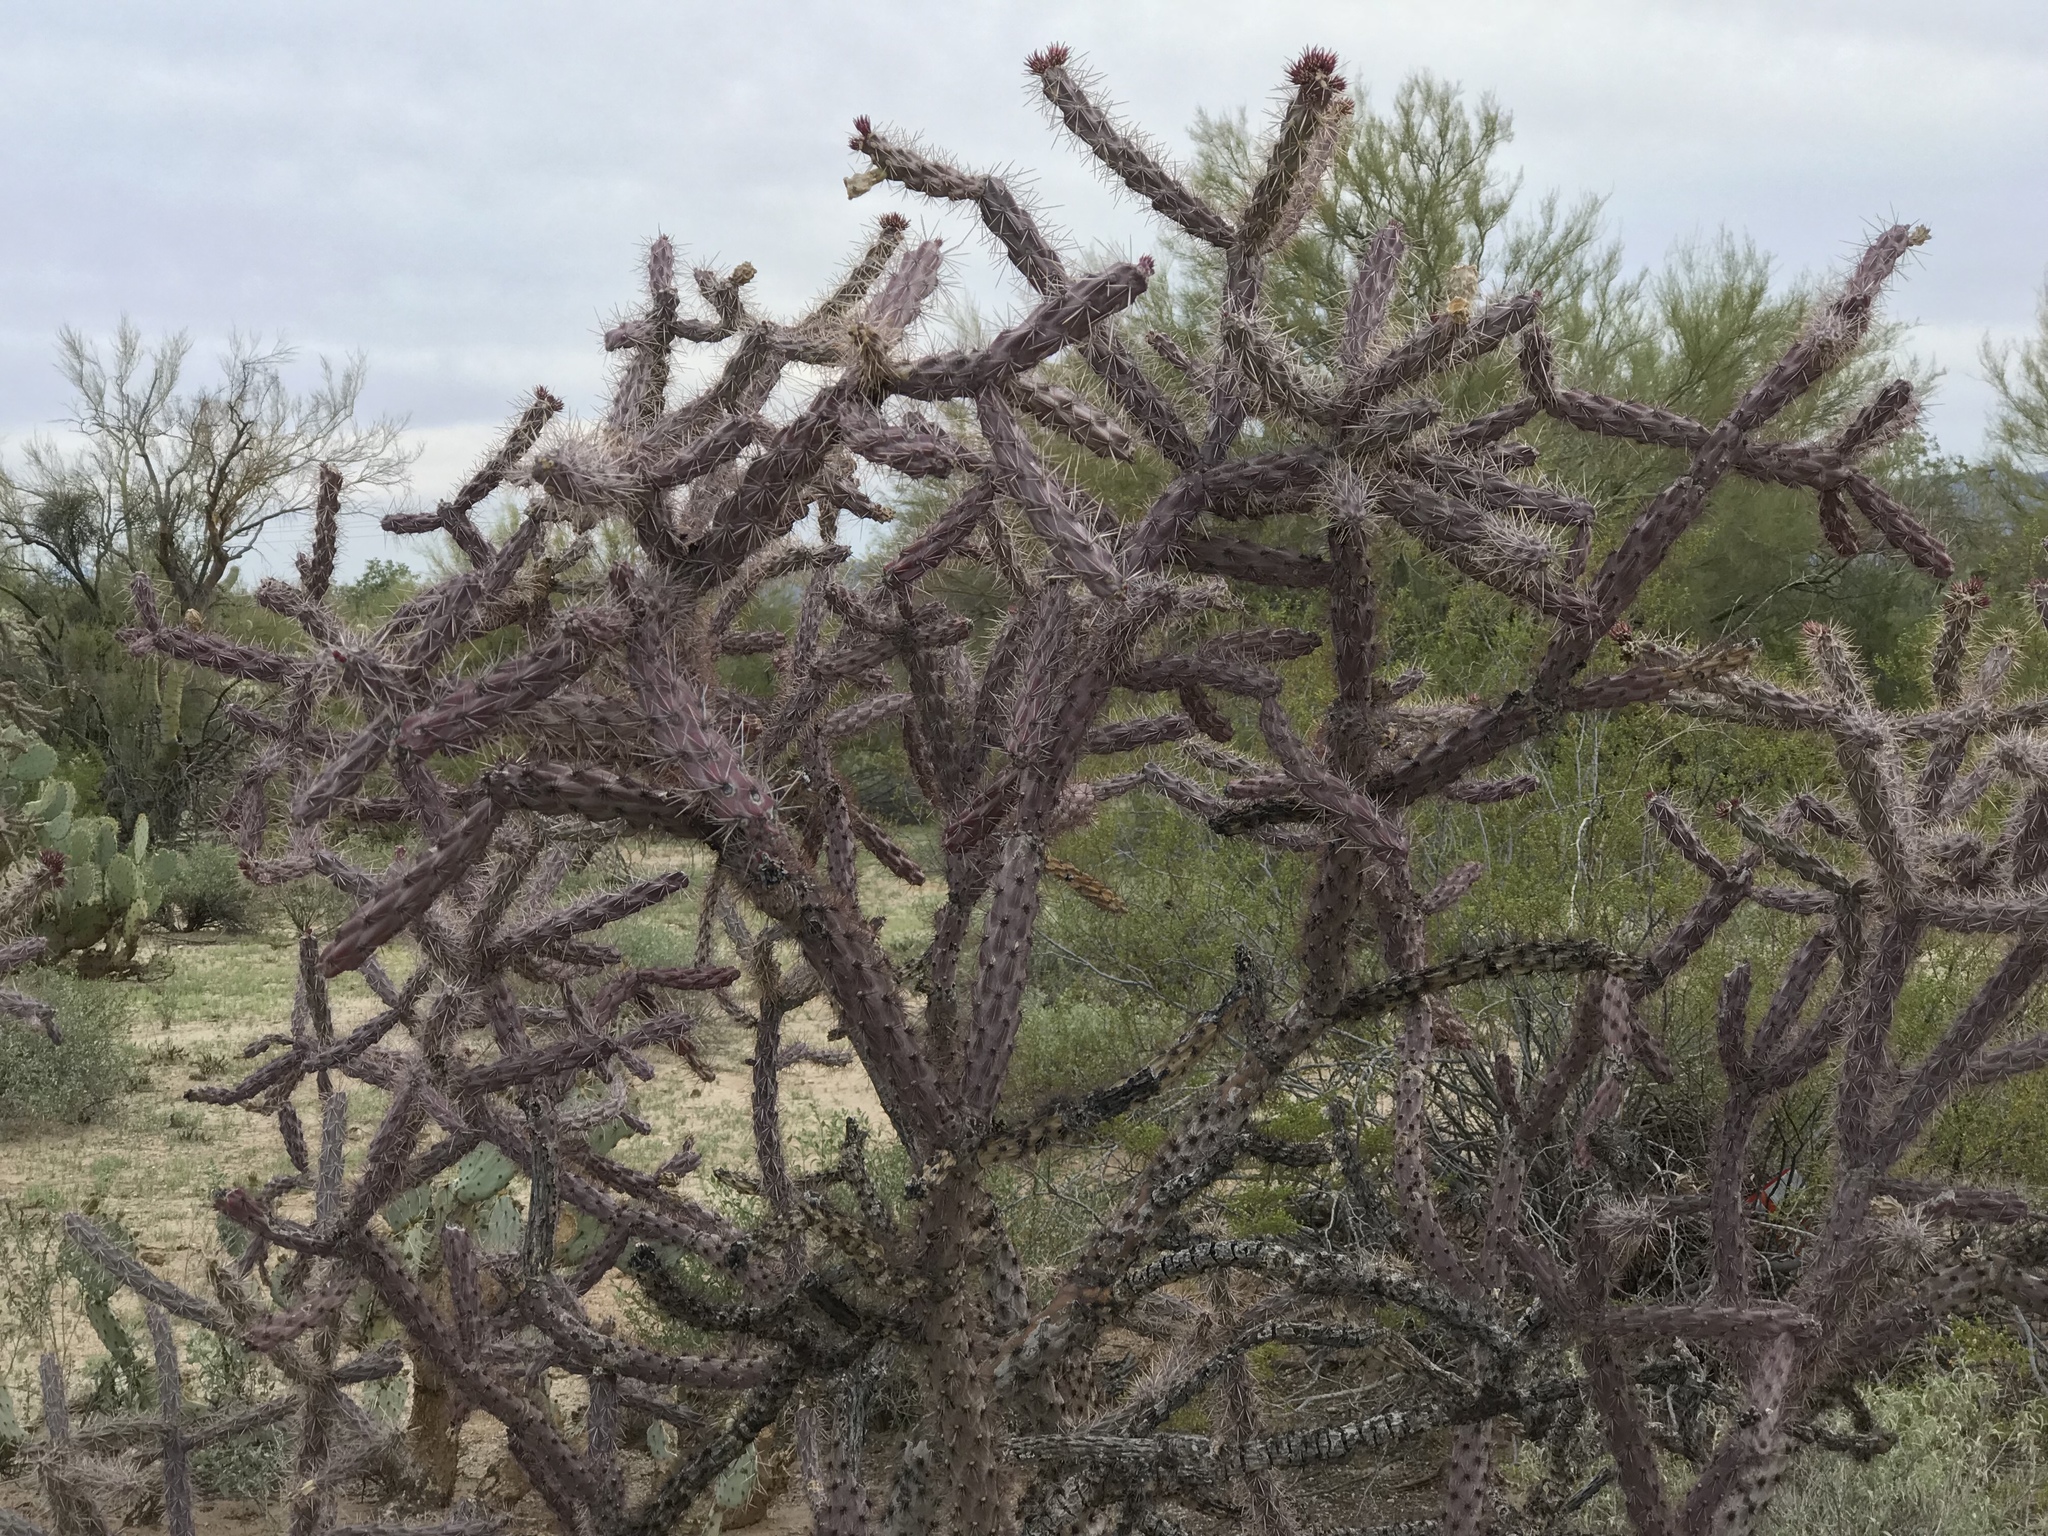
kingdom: Plantae
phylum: Tracheophyta
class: Magnoliopsida
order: Caryophyllales
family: Cactaceae
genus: Cylindropuntia
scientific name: Cylindropuntia thurberi
